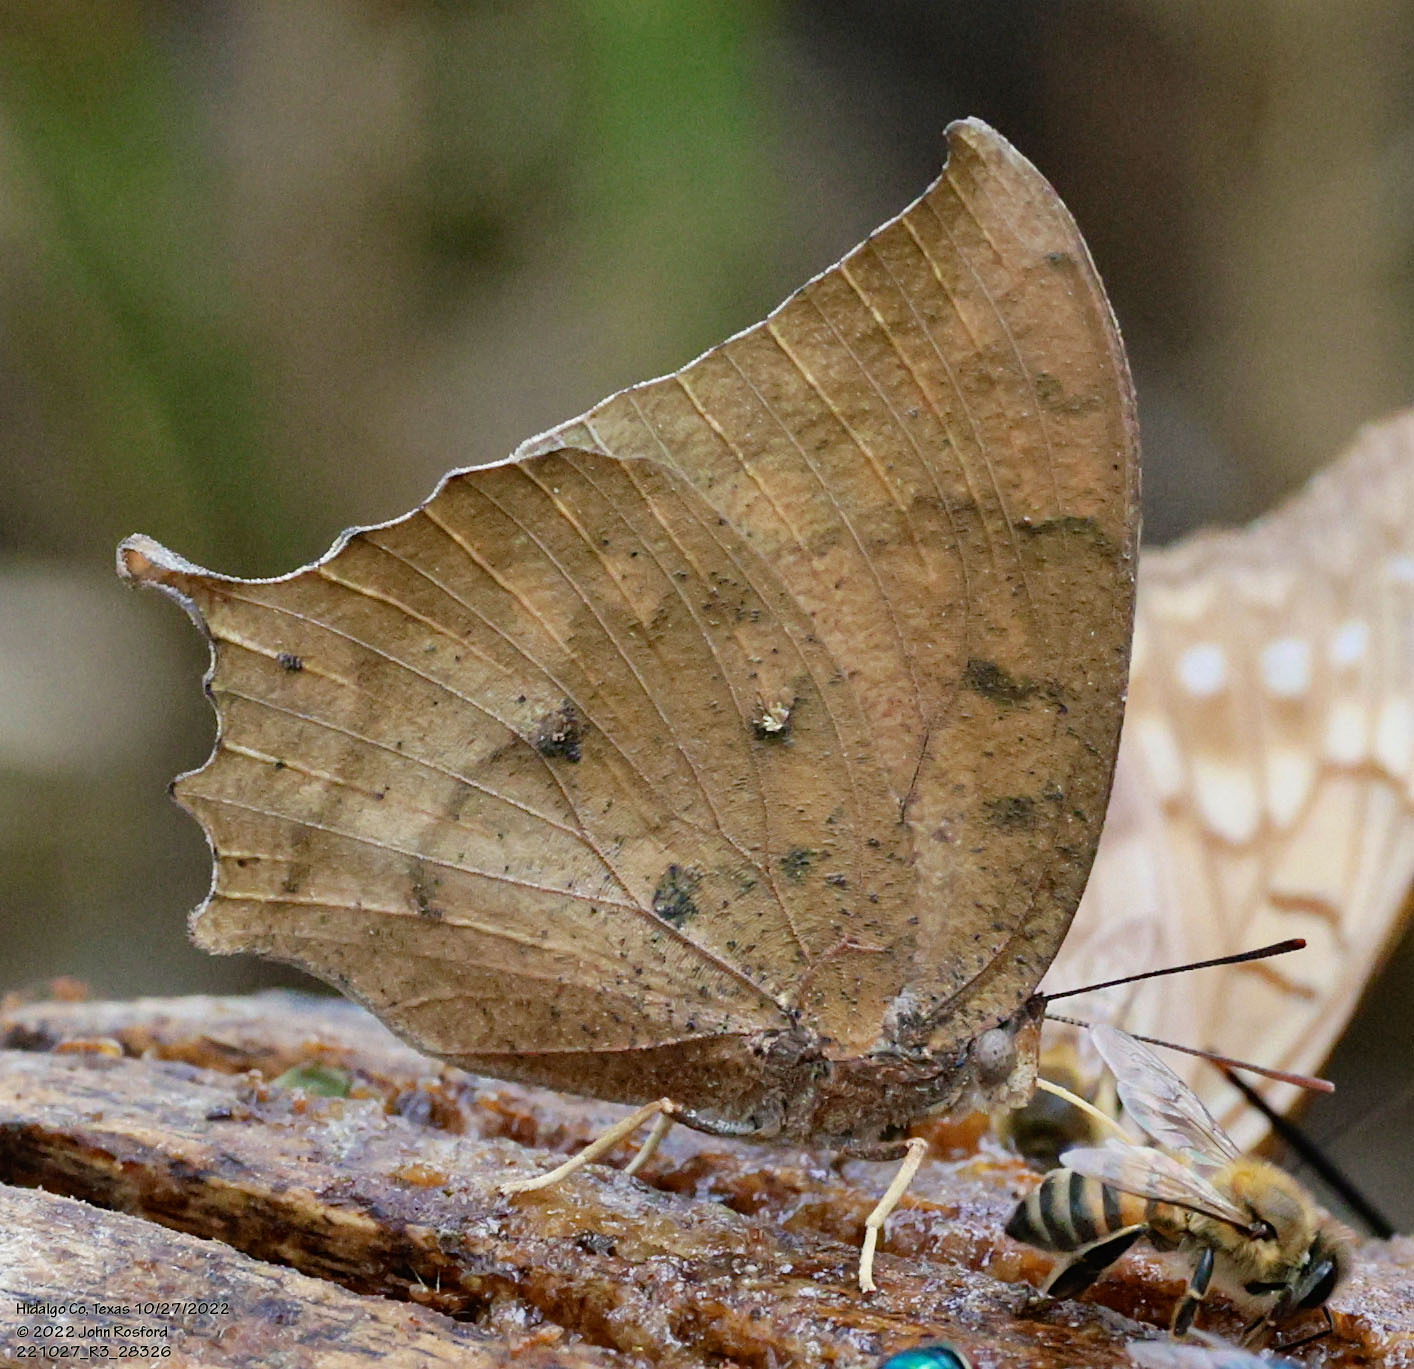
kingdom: Animalia
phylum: Arthropoda
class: Insecta
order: Lepidoptera
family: Nymphalidae
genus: Anaea
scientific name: Anaea aidea
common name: Tropical leafwing
